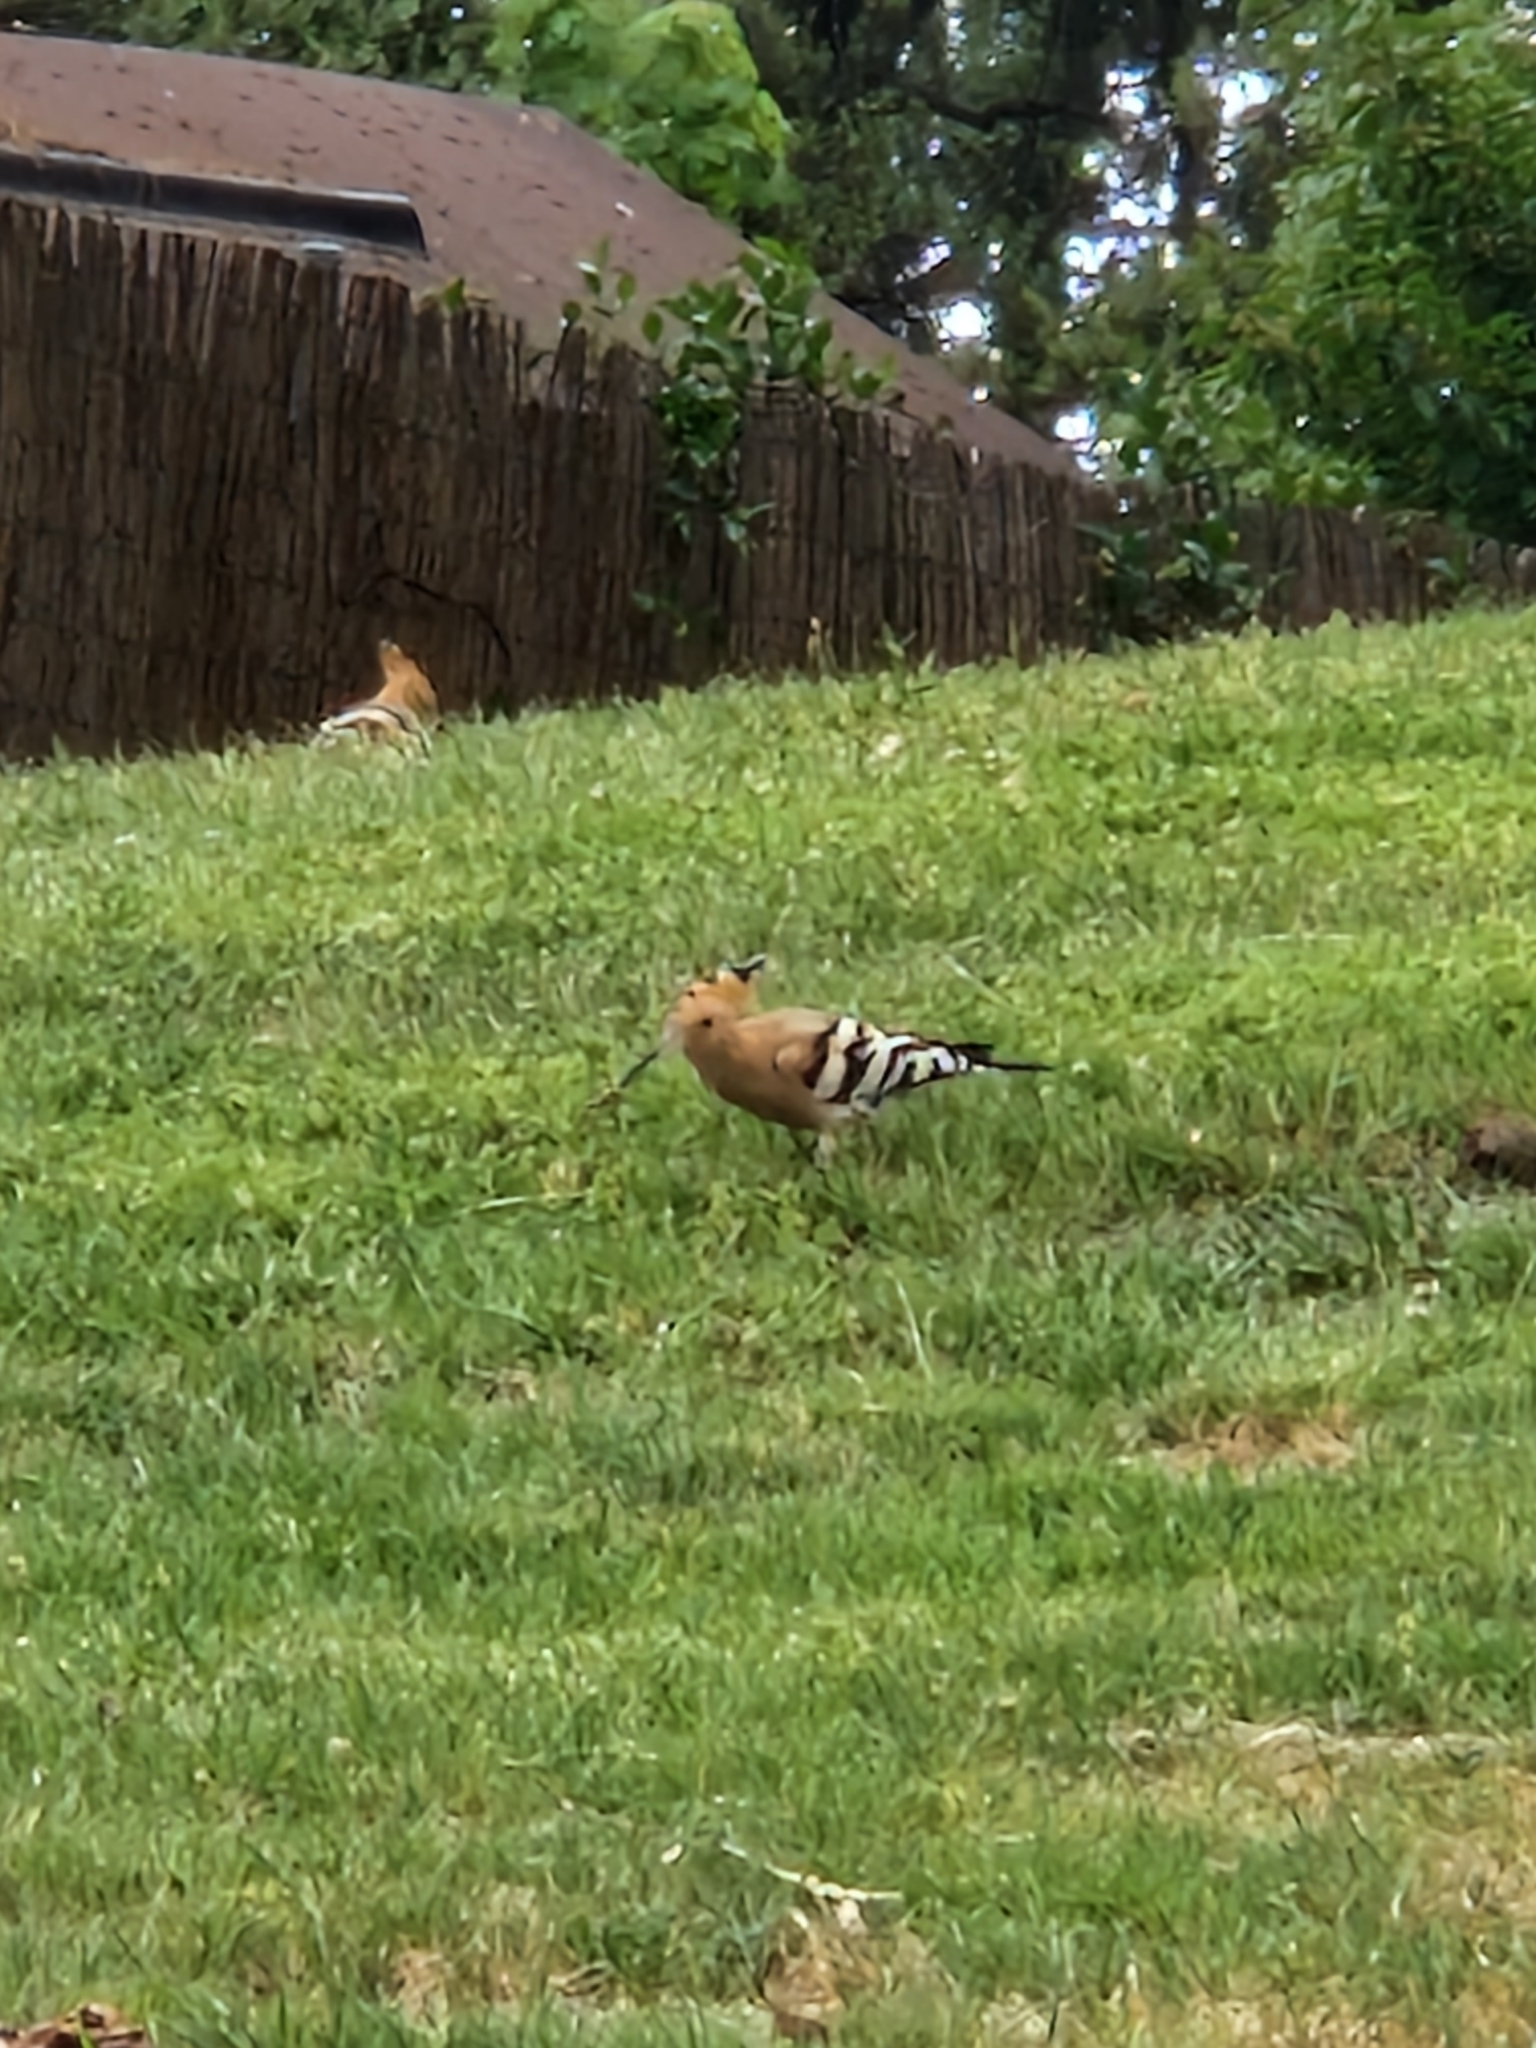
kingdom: Animalia
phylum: Chordata
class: Aves
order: Bucerotiformes
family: Upupidae
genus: Upupa
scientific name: Upupa epops
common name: Eurasian hoopoe
